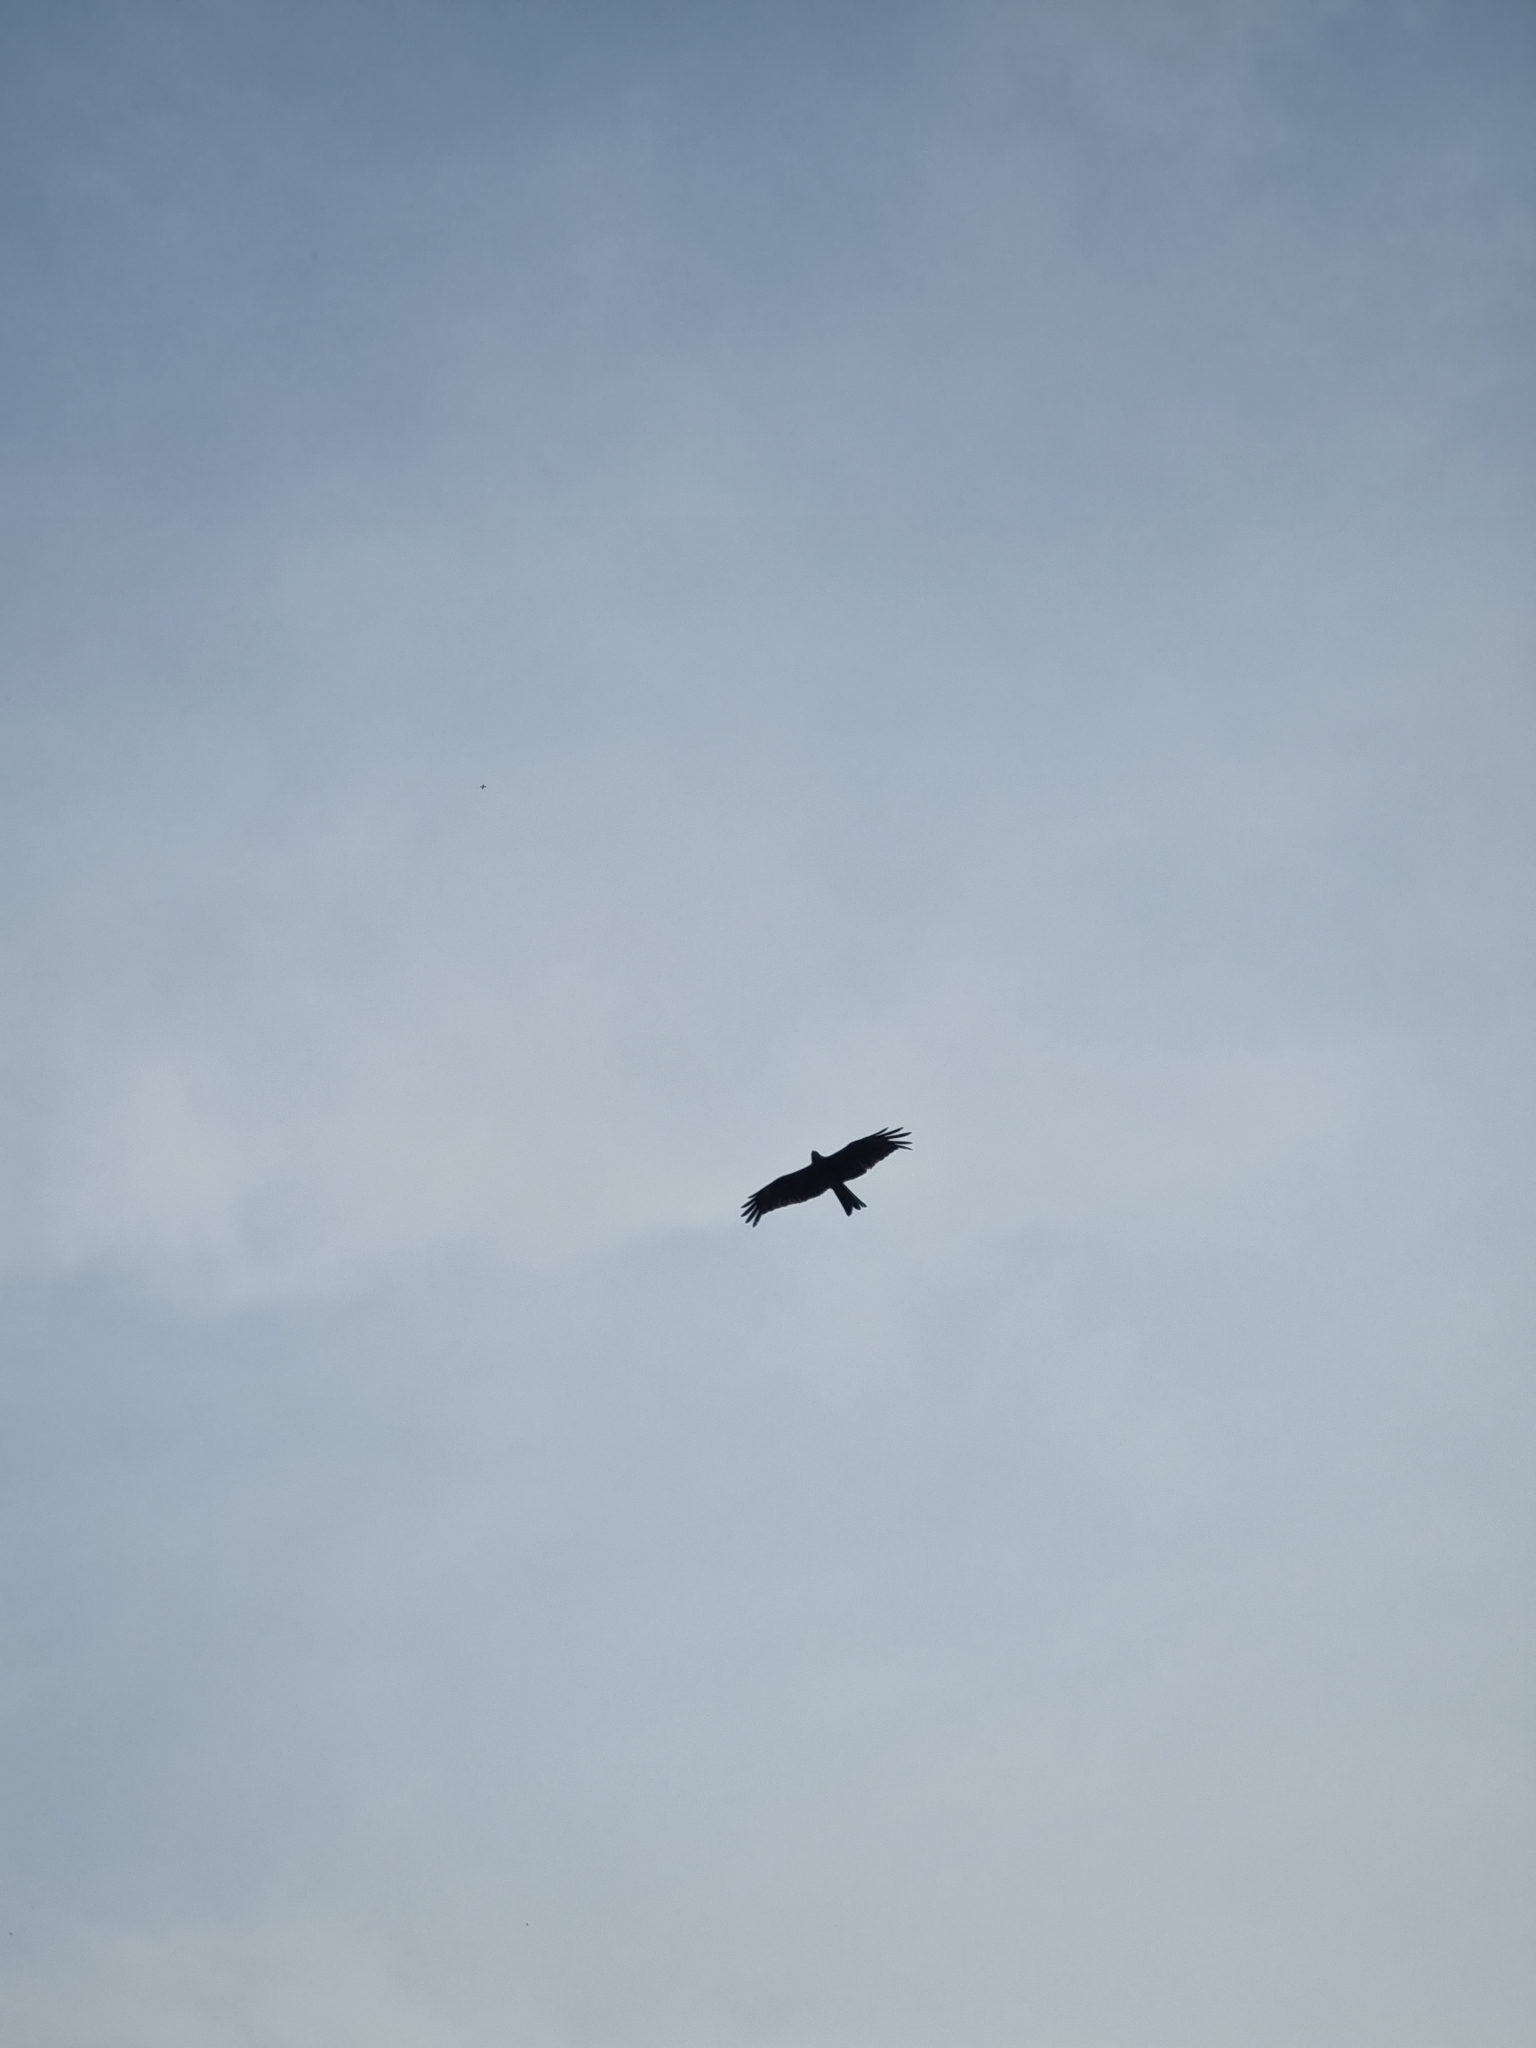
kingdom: Animalia
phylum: Chordata
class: Aves
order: Accipitriformes
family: Accipitridae
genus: Milvus
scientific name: Milvus migrans
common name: Black kite
